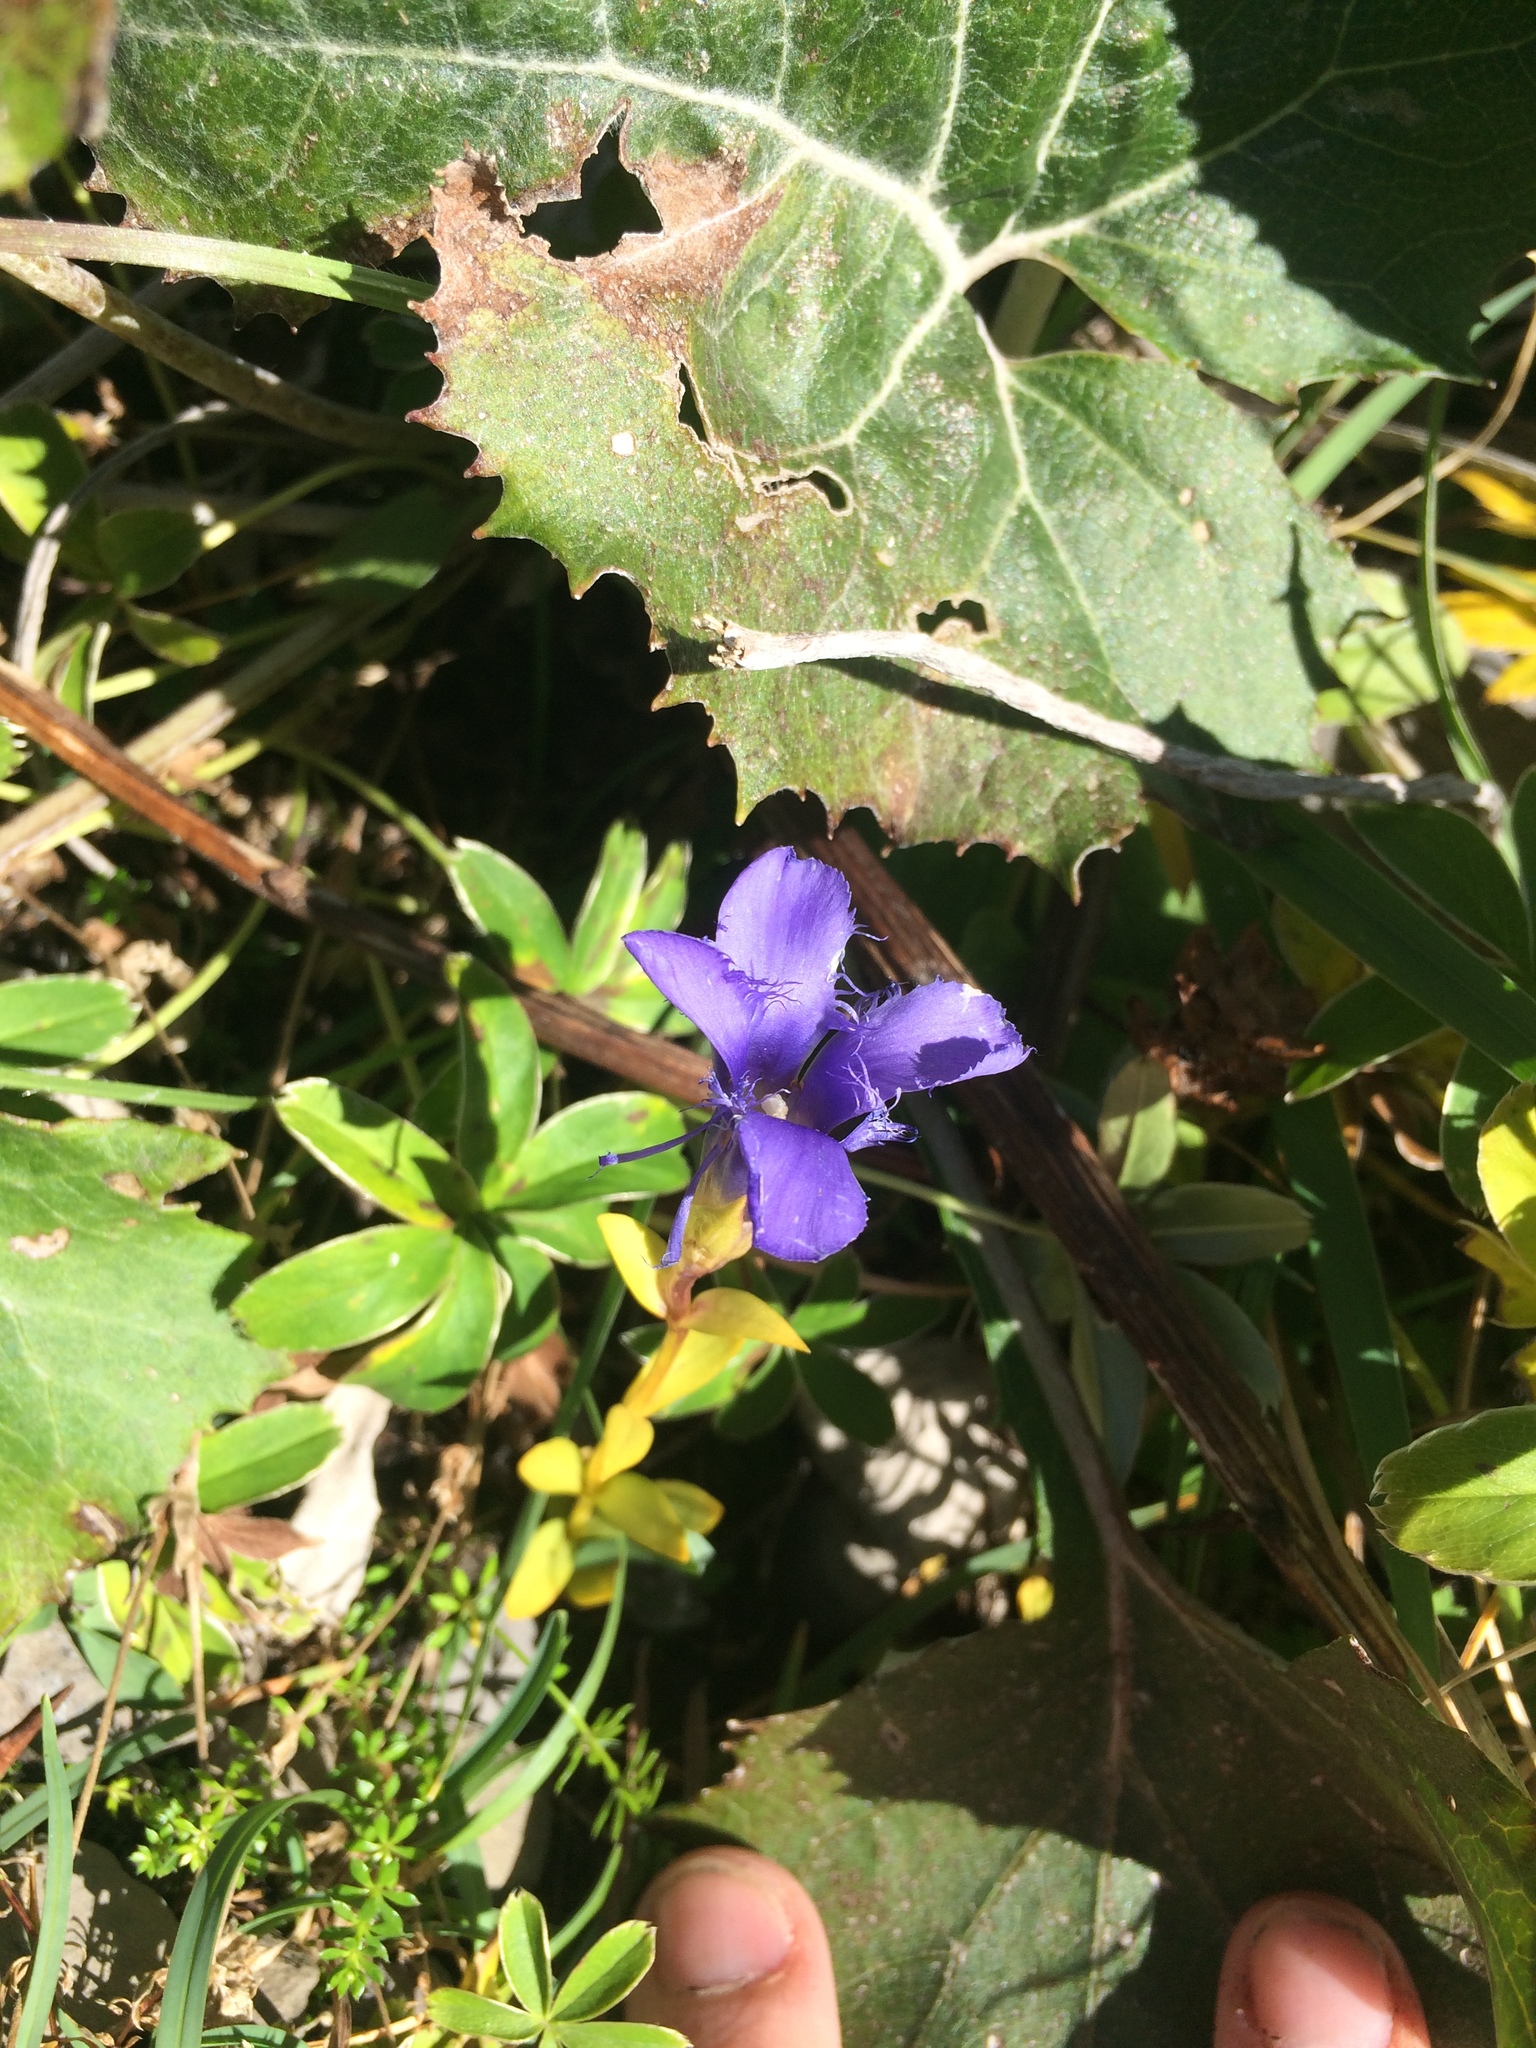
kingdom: Plantae
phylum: Tracheophyta
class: Magnoliopsida
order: Gentianales
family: Gentianaceae
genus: Gentianopsis
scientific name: Gentianopsis ciliata
